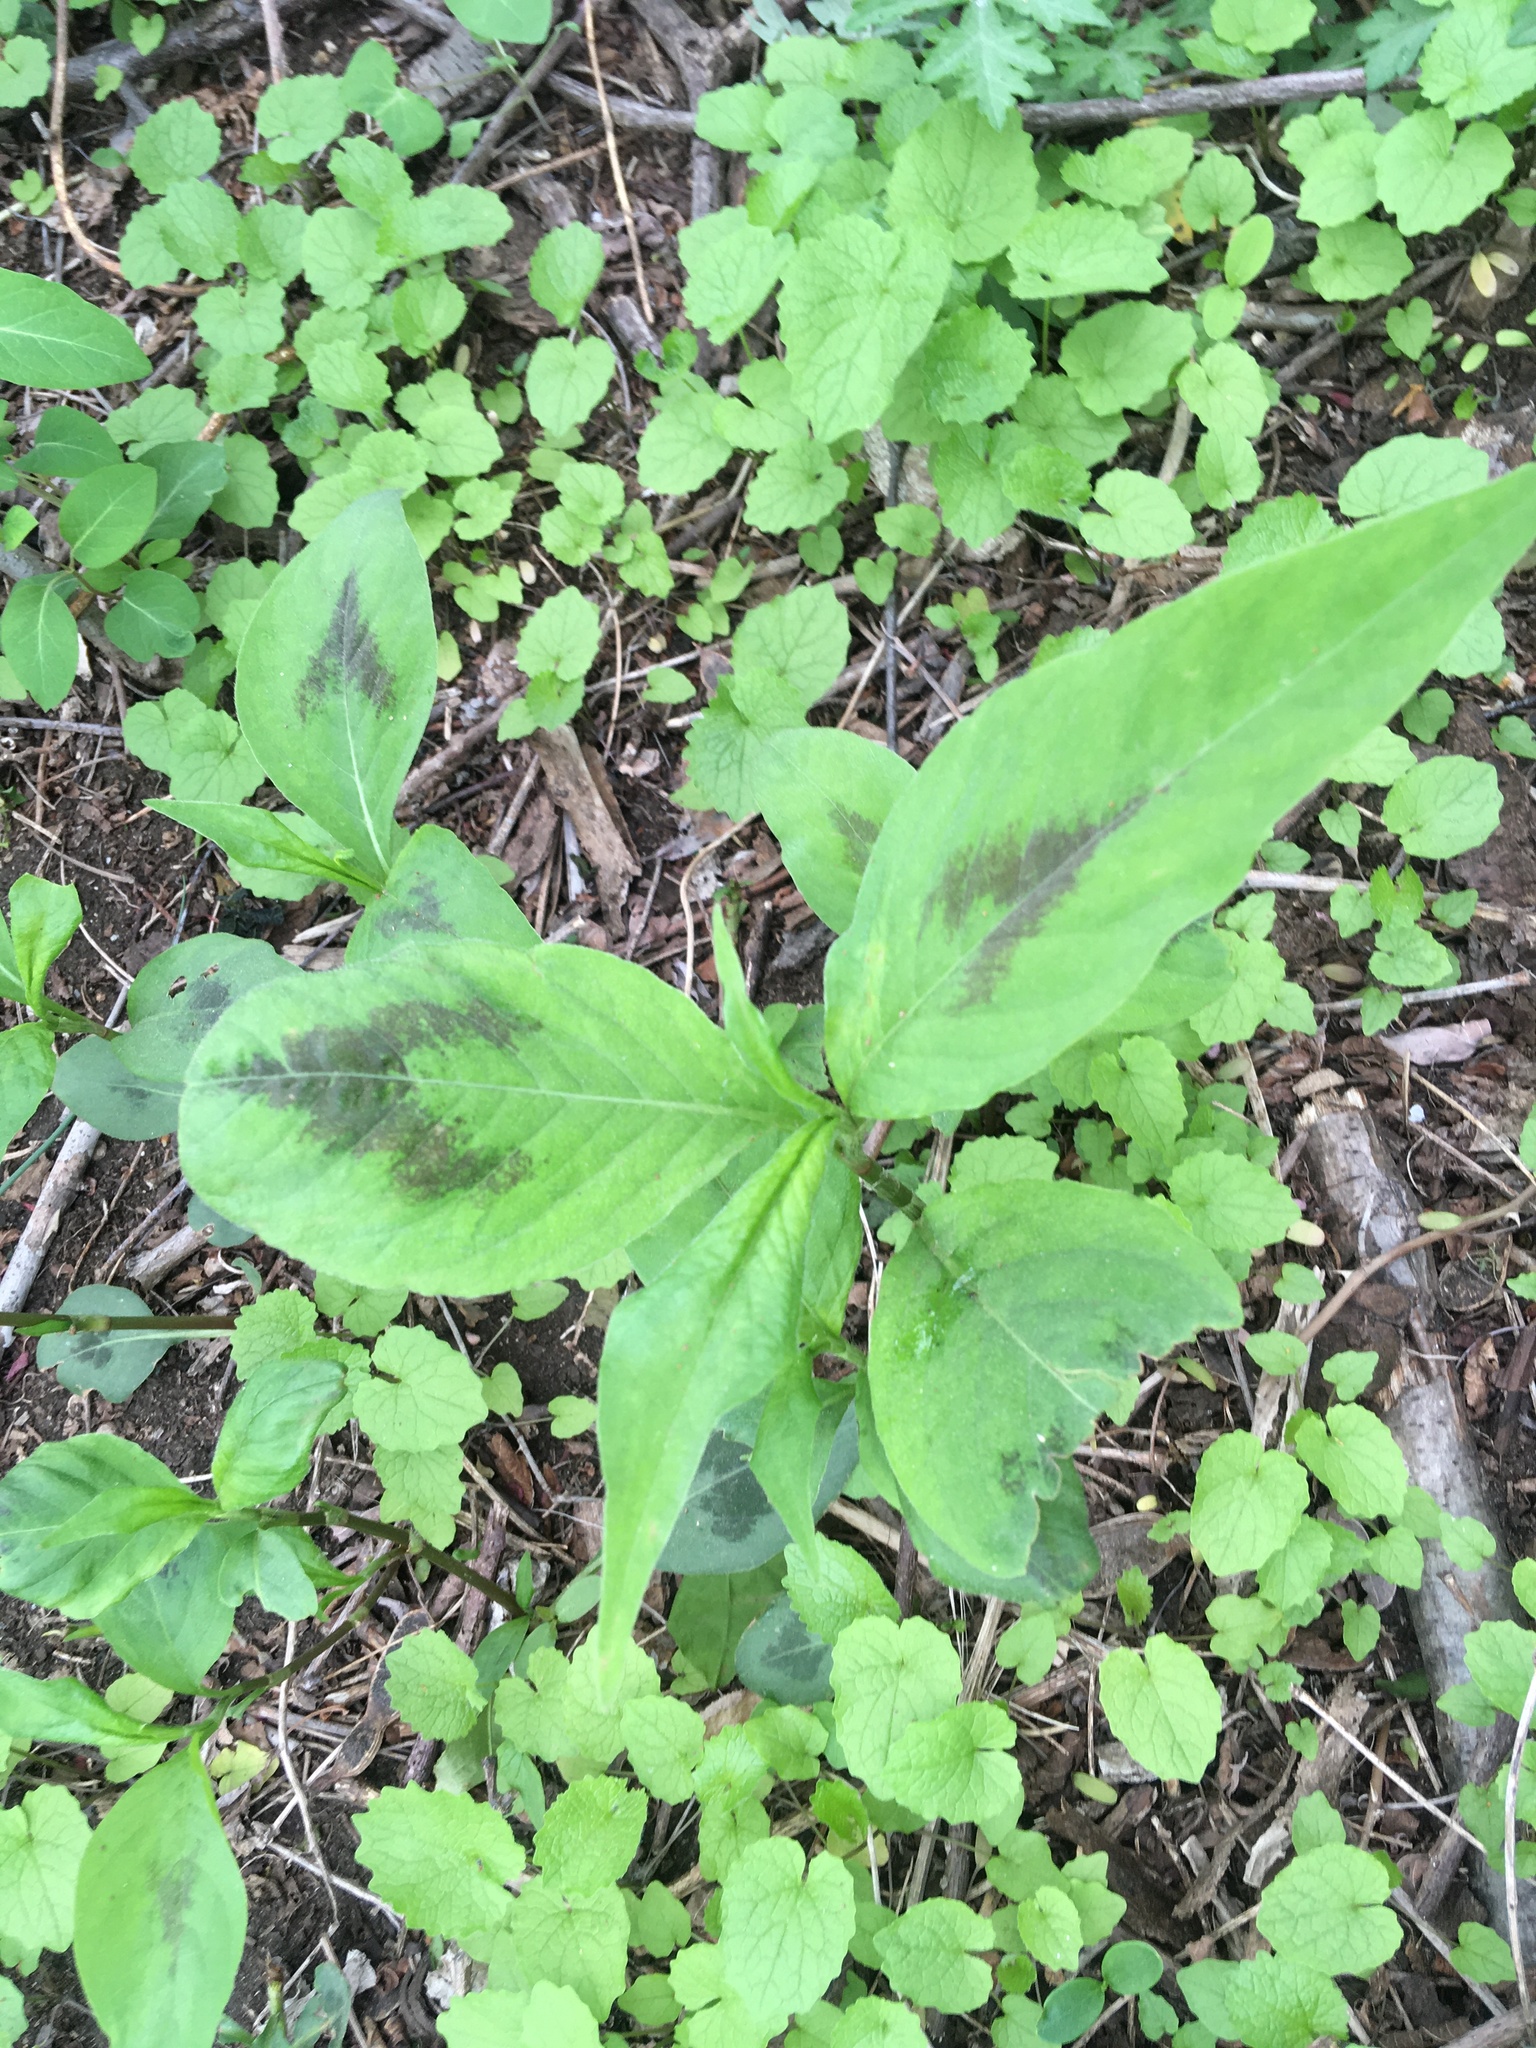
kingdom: Plantae
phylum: Tracheophyta
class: Magnoliopsida
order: Caryophyllales
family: Polygonaceae
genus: Persicaria
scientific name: Persicaria virginiana
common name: Jumpseed
